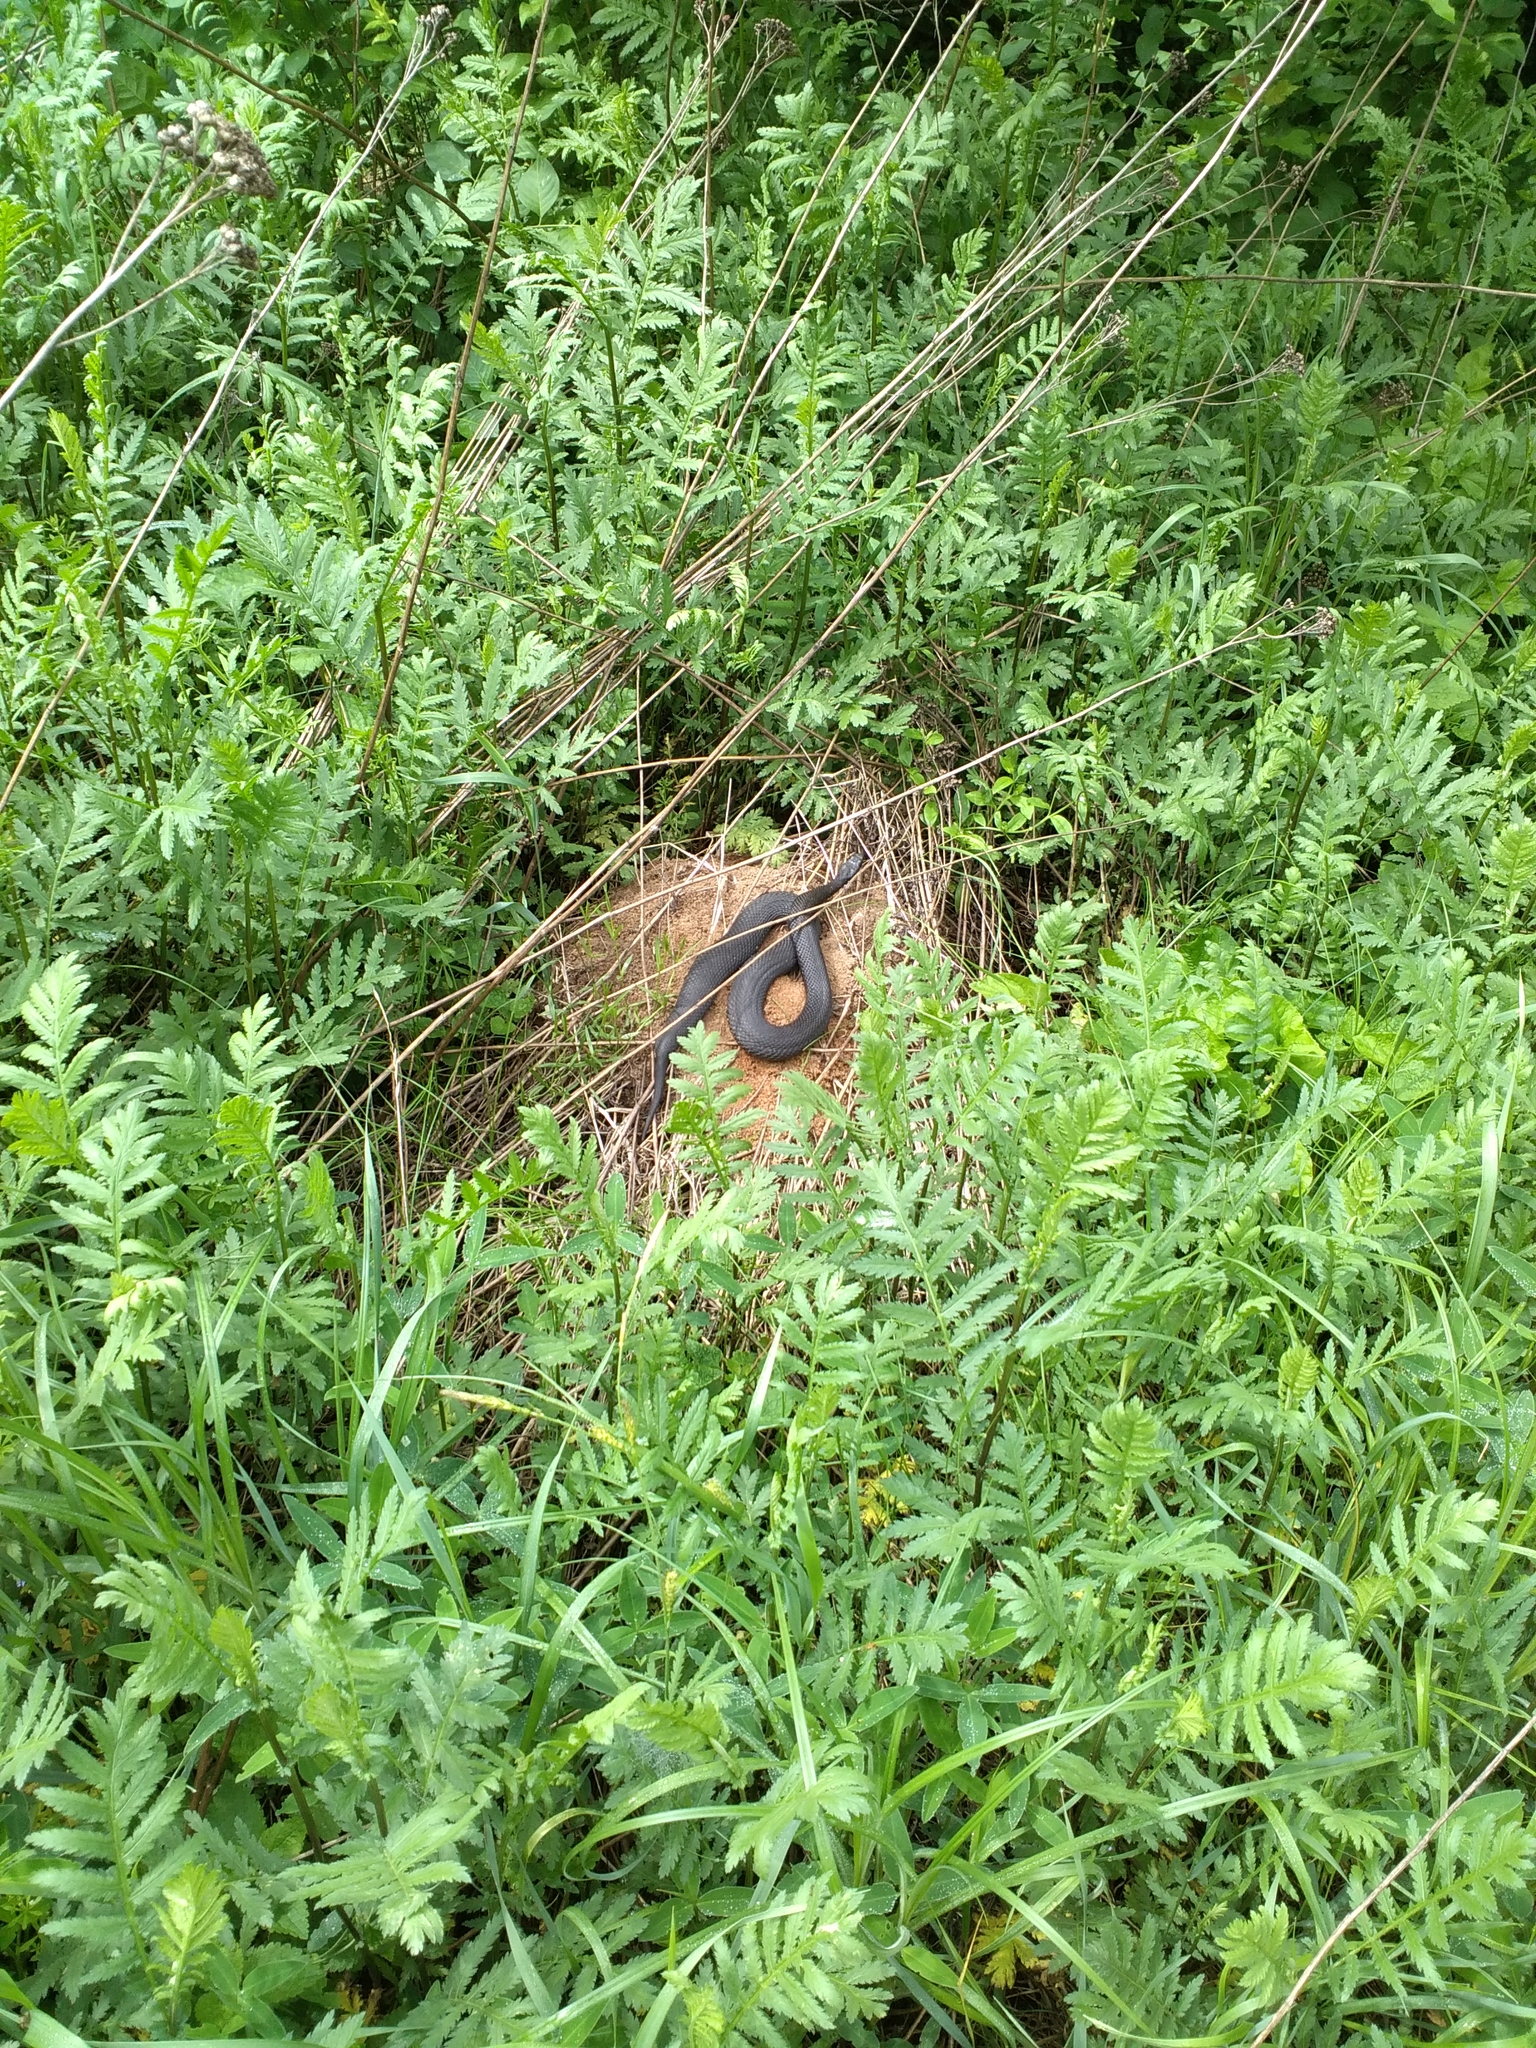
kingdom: Animalia
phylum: Chordata
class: Squamata
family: Viperidae
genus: Vipera
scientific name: Vipera nikolskii
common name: Adder
